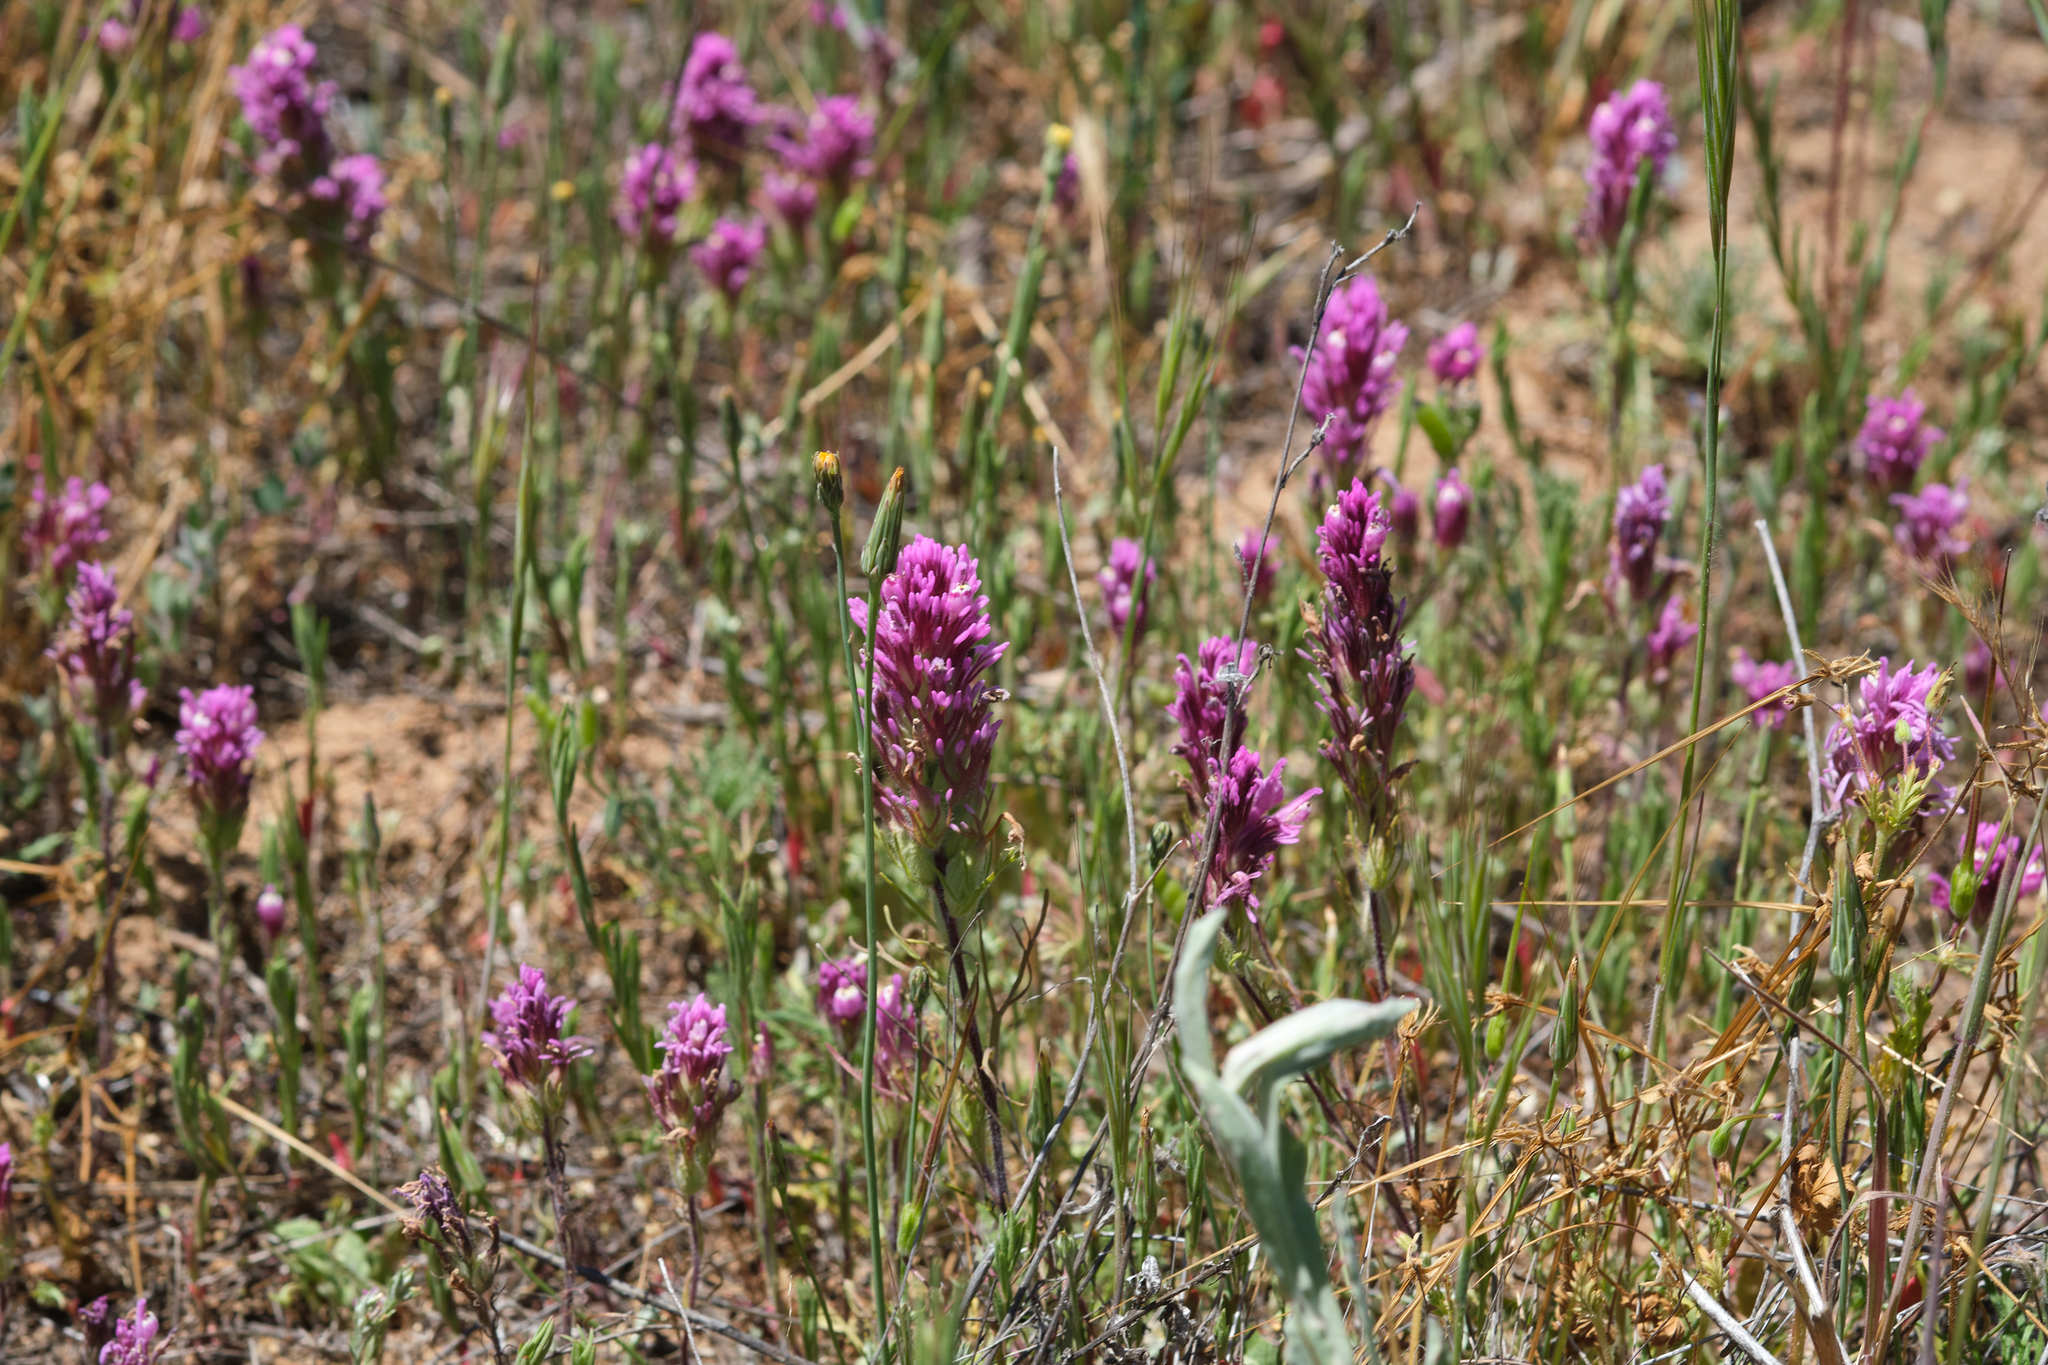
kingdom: Plantae
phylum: Tracheophyta
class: Magnoliopsida
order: Lamiales
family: Orobanchaceae
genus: Castilleja
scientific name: Castilleja exserta
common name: Purple owl-clover
